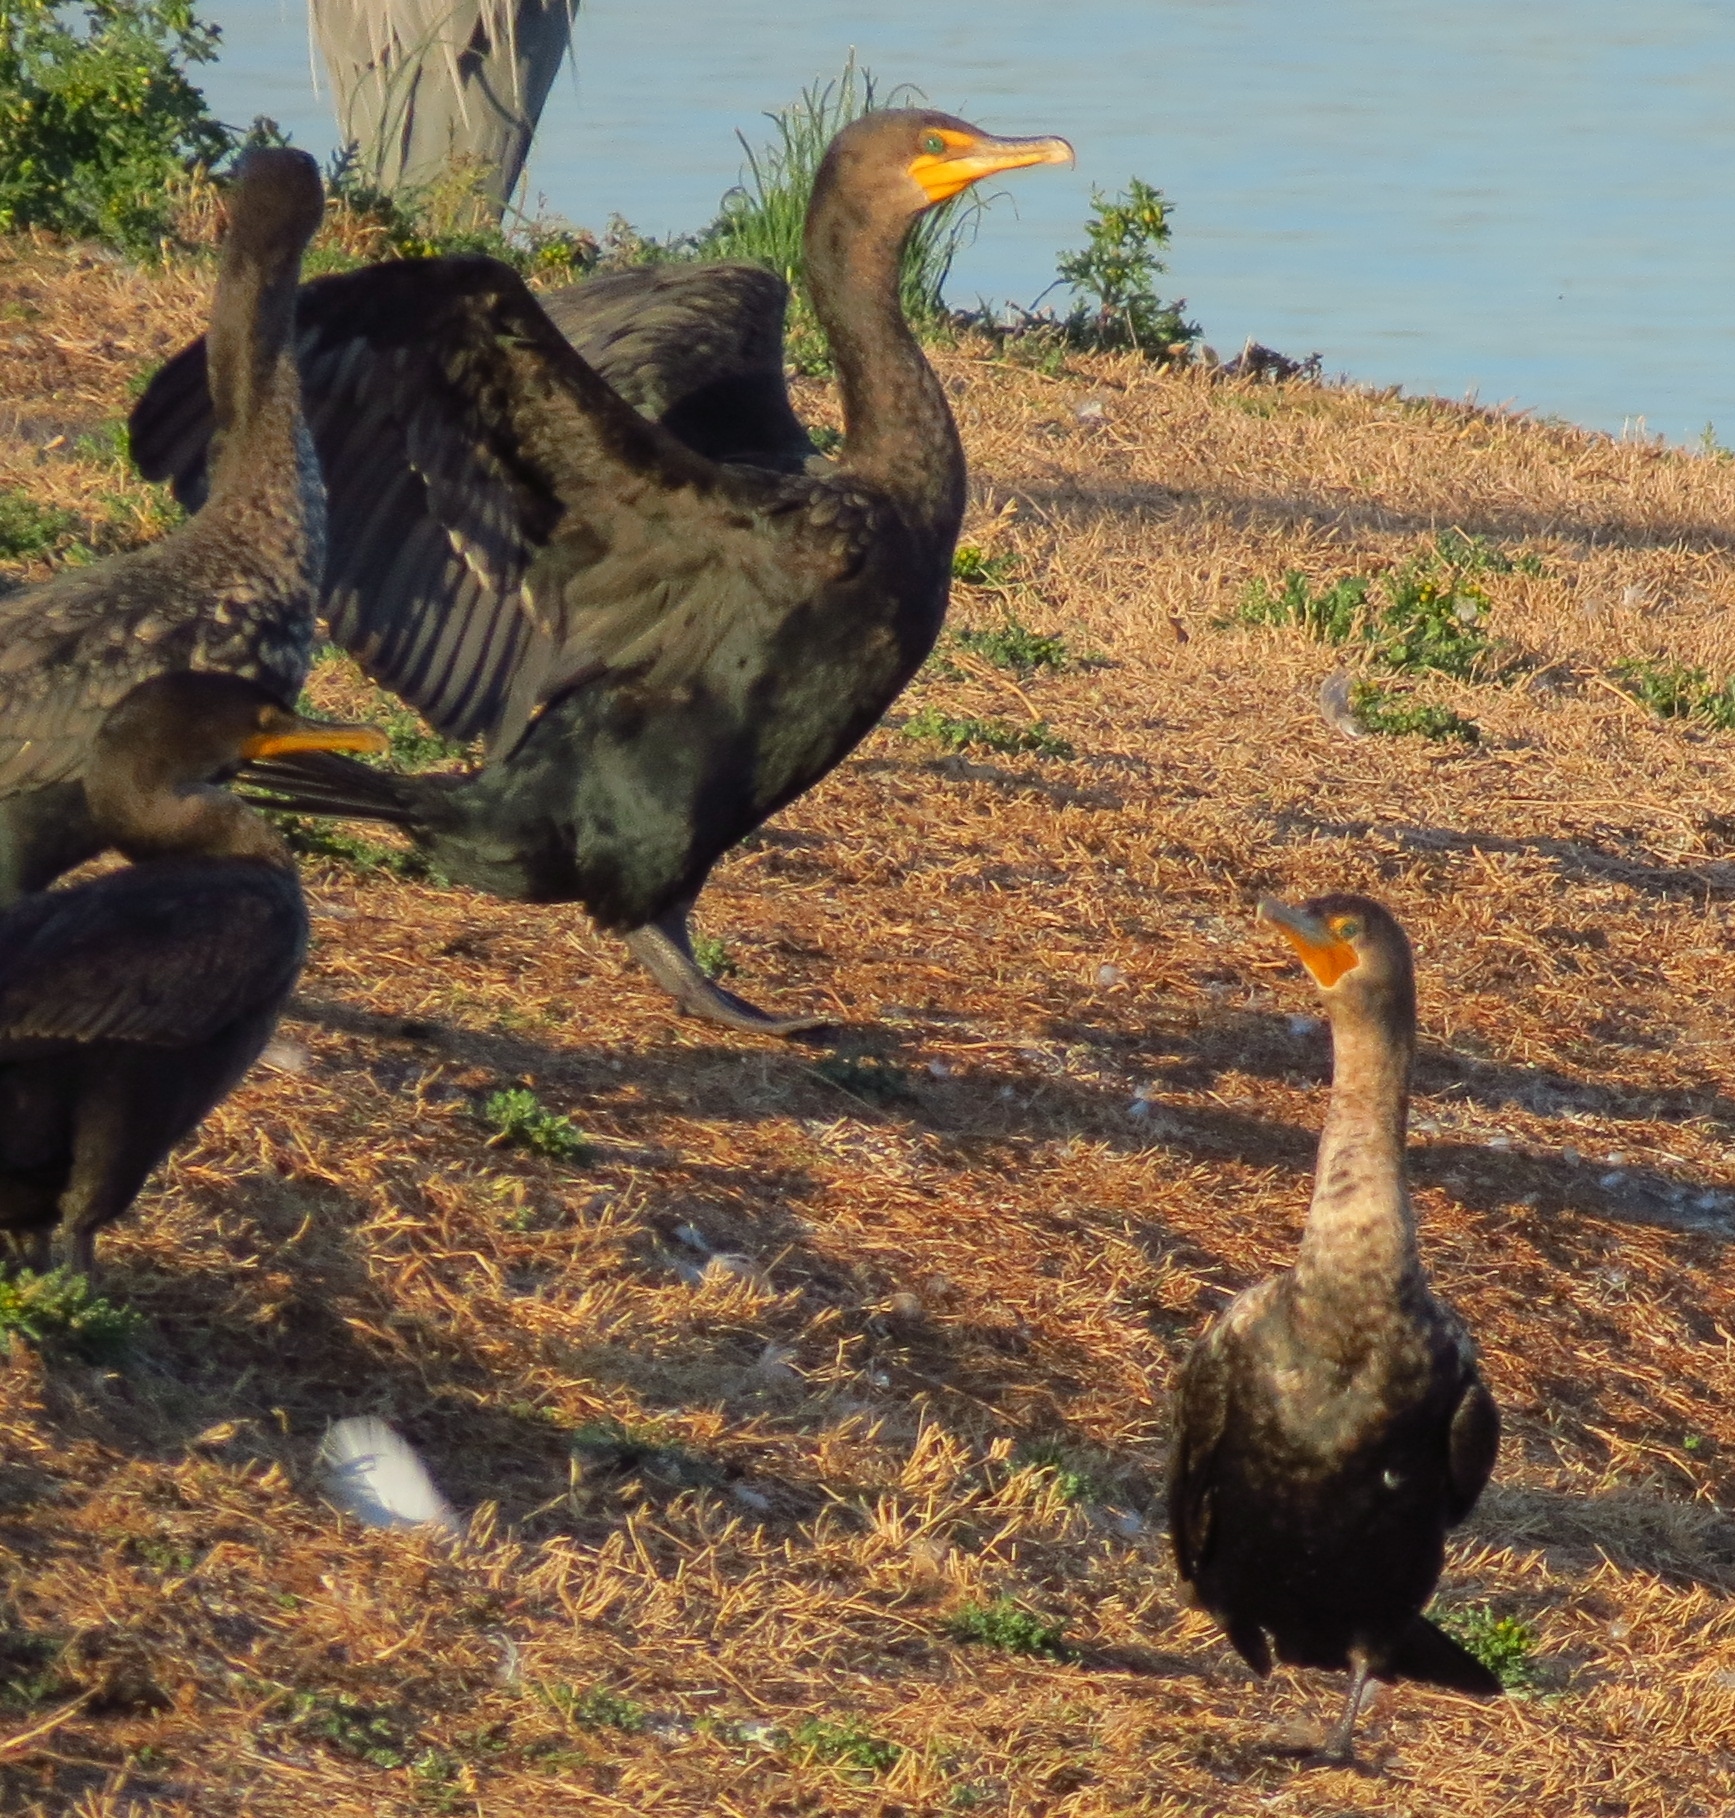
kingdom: Animalia
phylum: Chordata
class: Aves
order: Suliformes
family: Phalacrocoracidae
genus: Phalacrocorax
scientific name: Phalacrocorax auritus
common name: Double-crested cormorant
